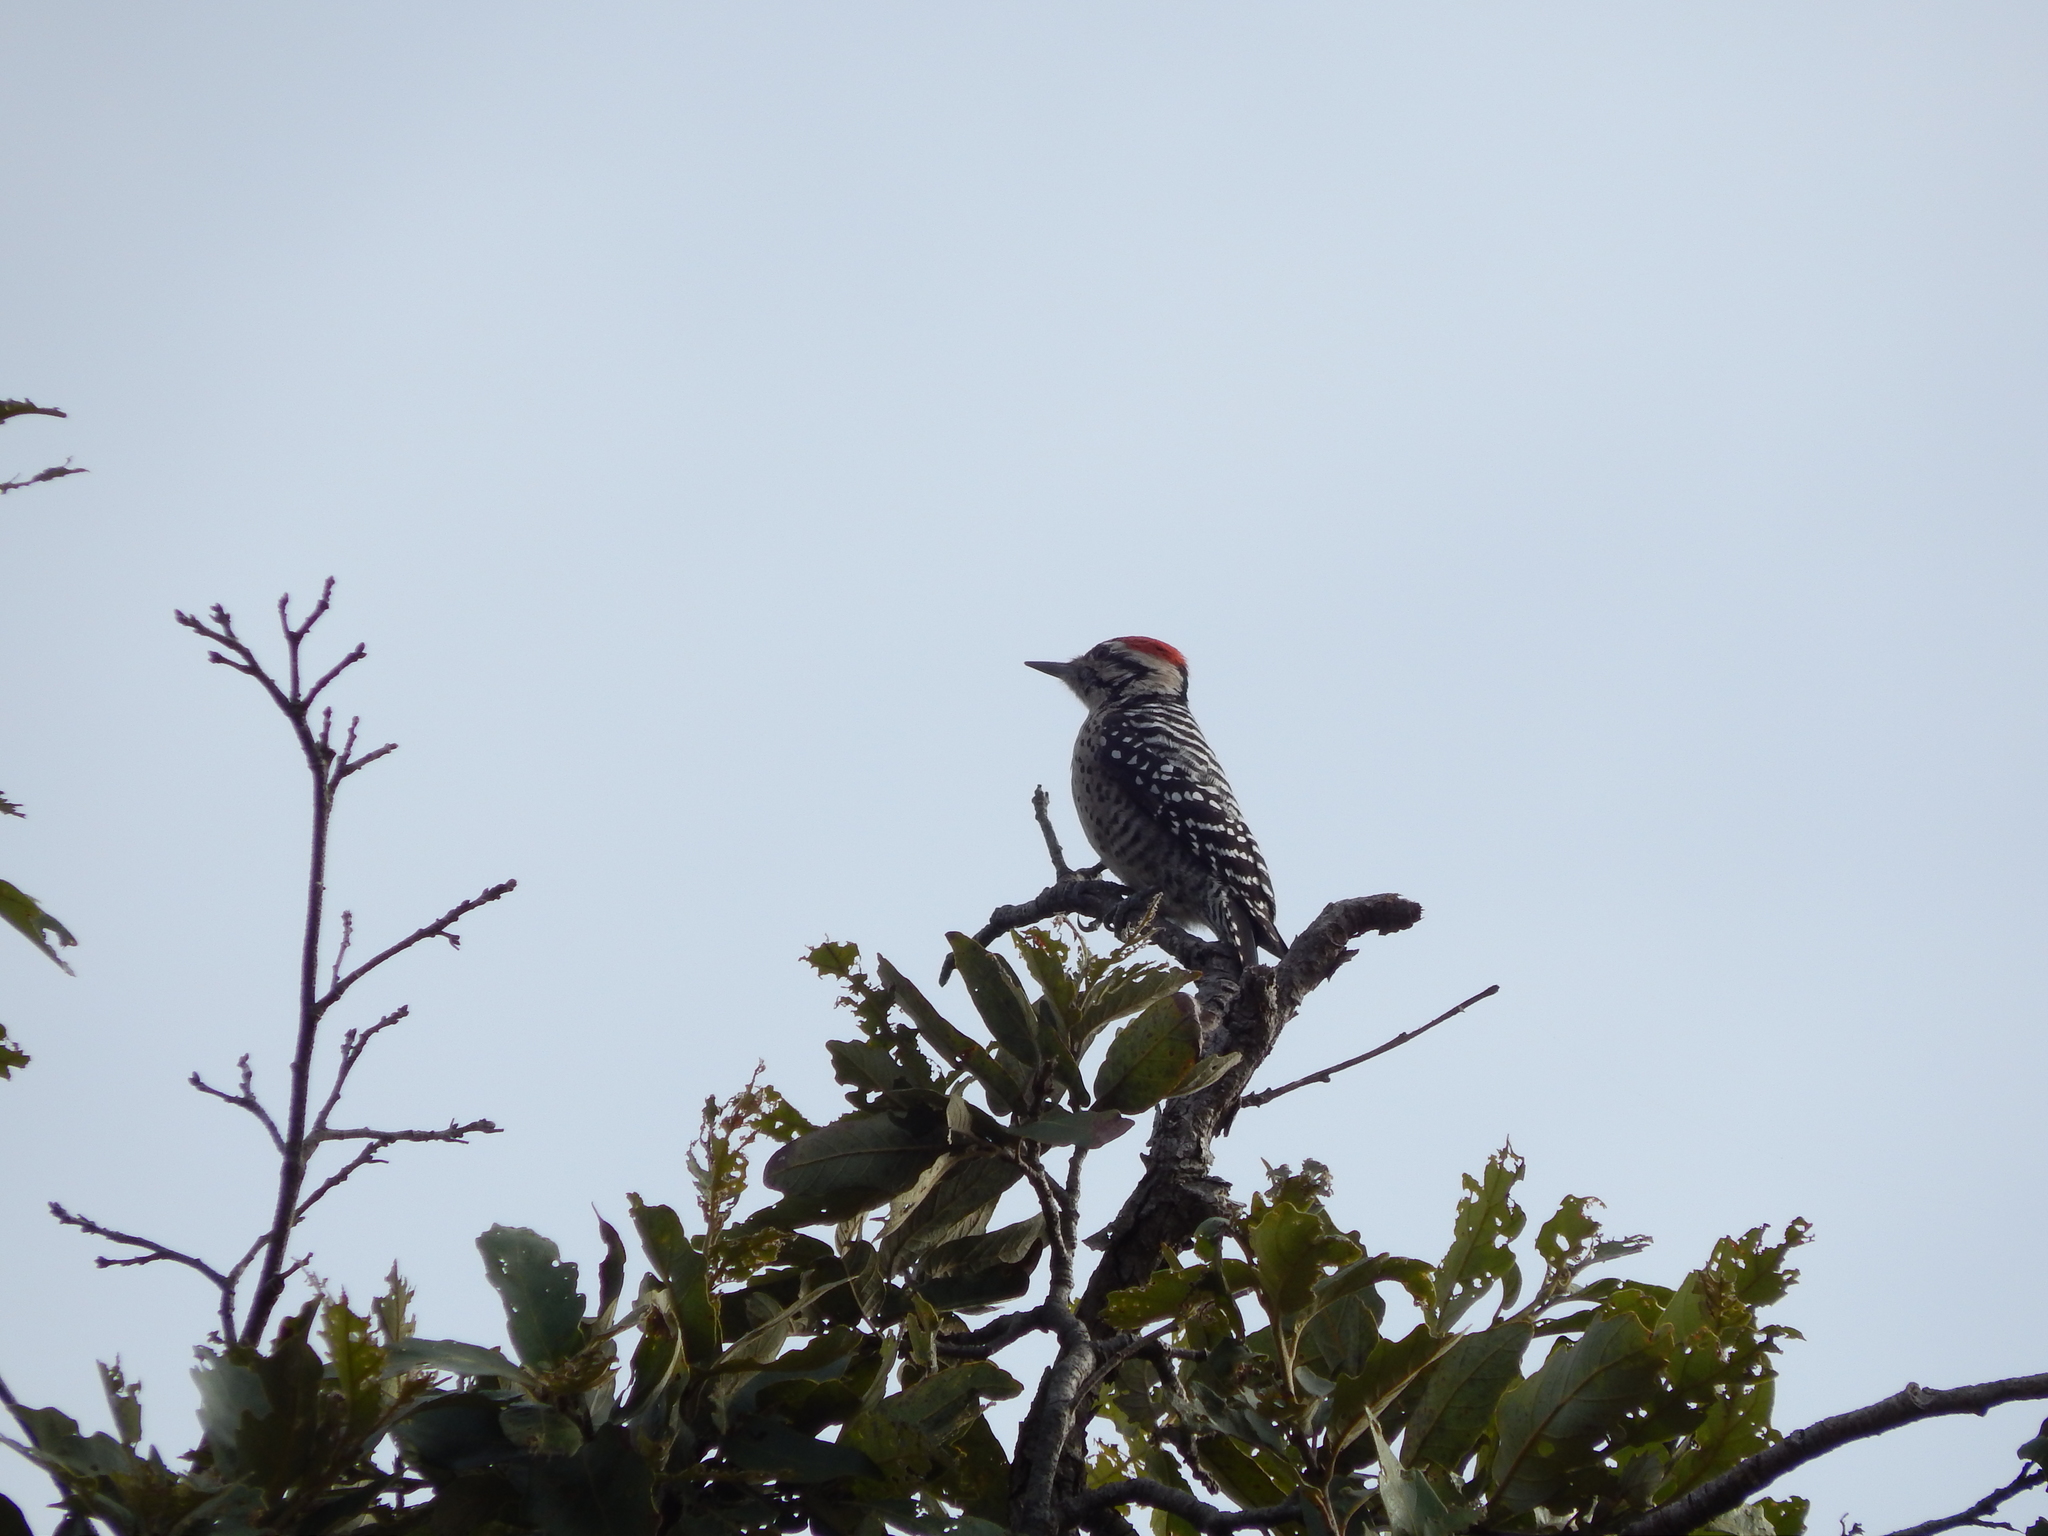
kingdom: Animalia
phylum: Chordata
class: Aves
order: Piciformes
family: Picidae
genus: Dryobates
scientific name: Dryobates scalaris
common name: Ladder-backed woodpecker
